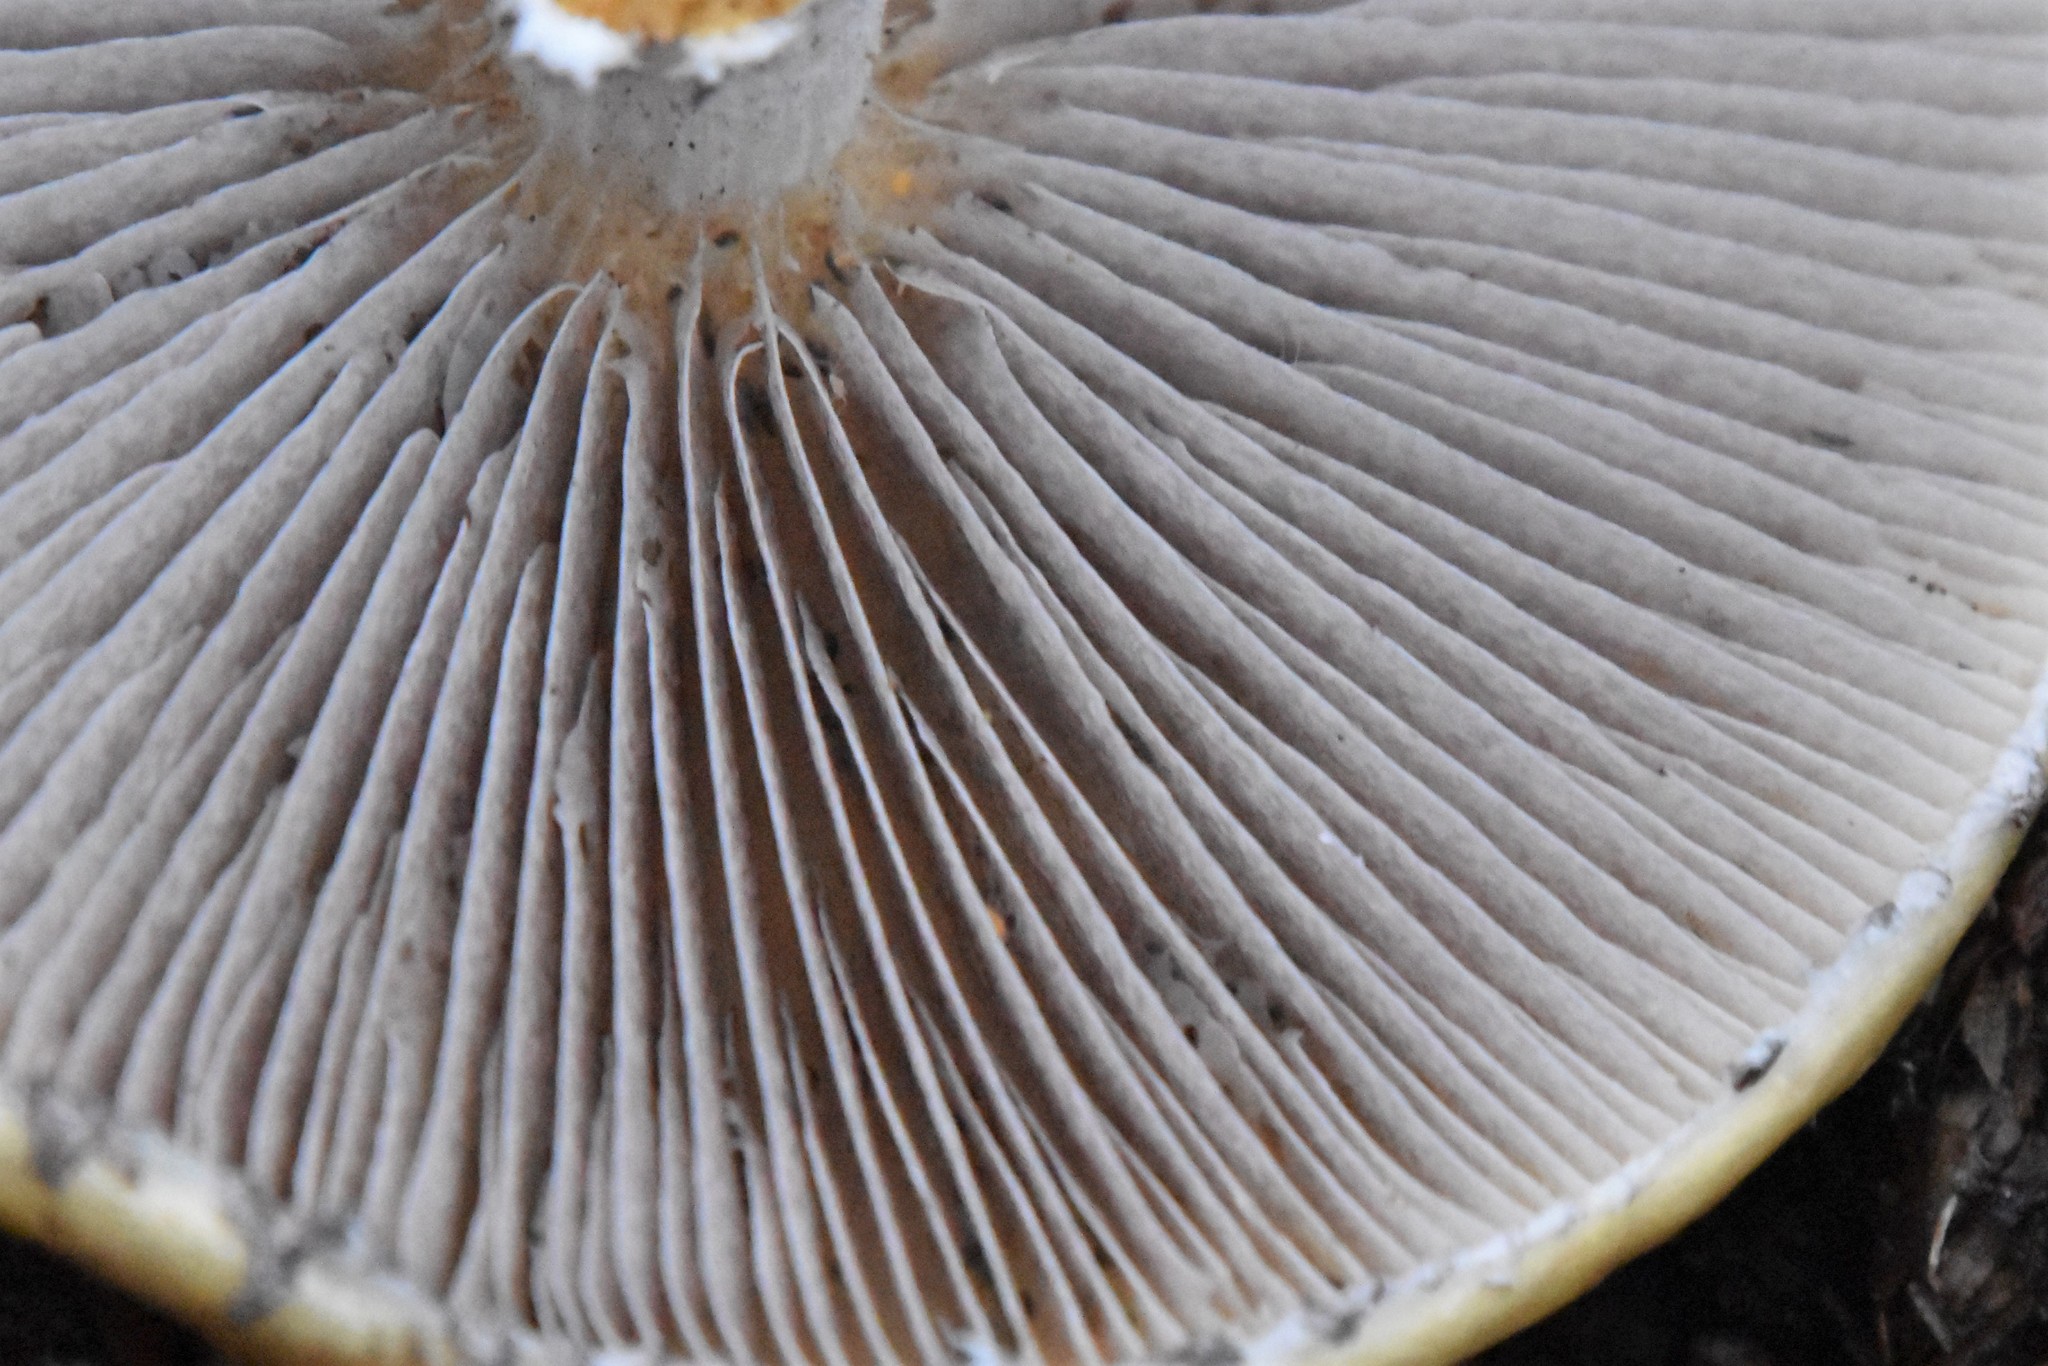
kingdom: Fungi
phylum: Basidiomycota
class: Agaricomycetes
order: Agaricales
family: Strophariaceae
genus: Stropharia
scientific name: Stropharia ambigua
